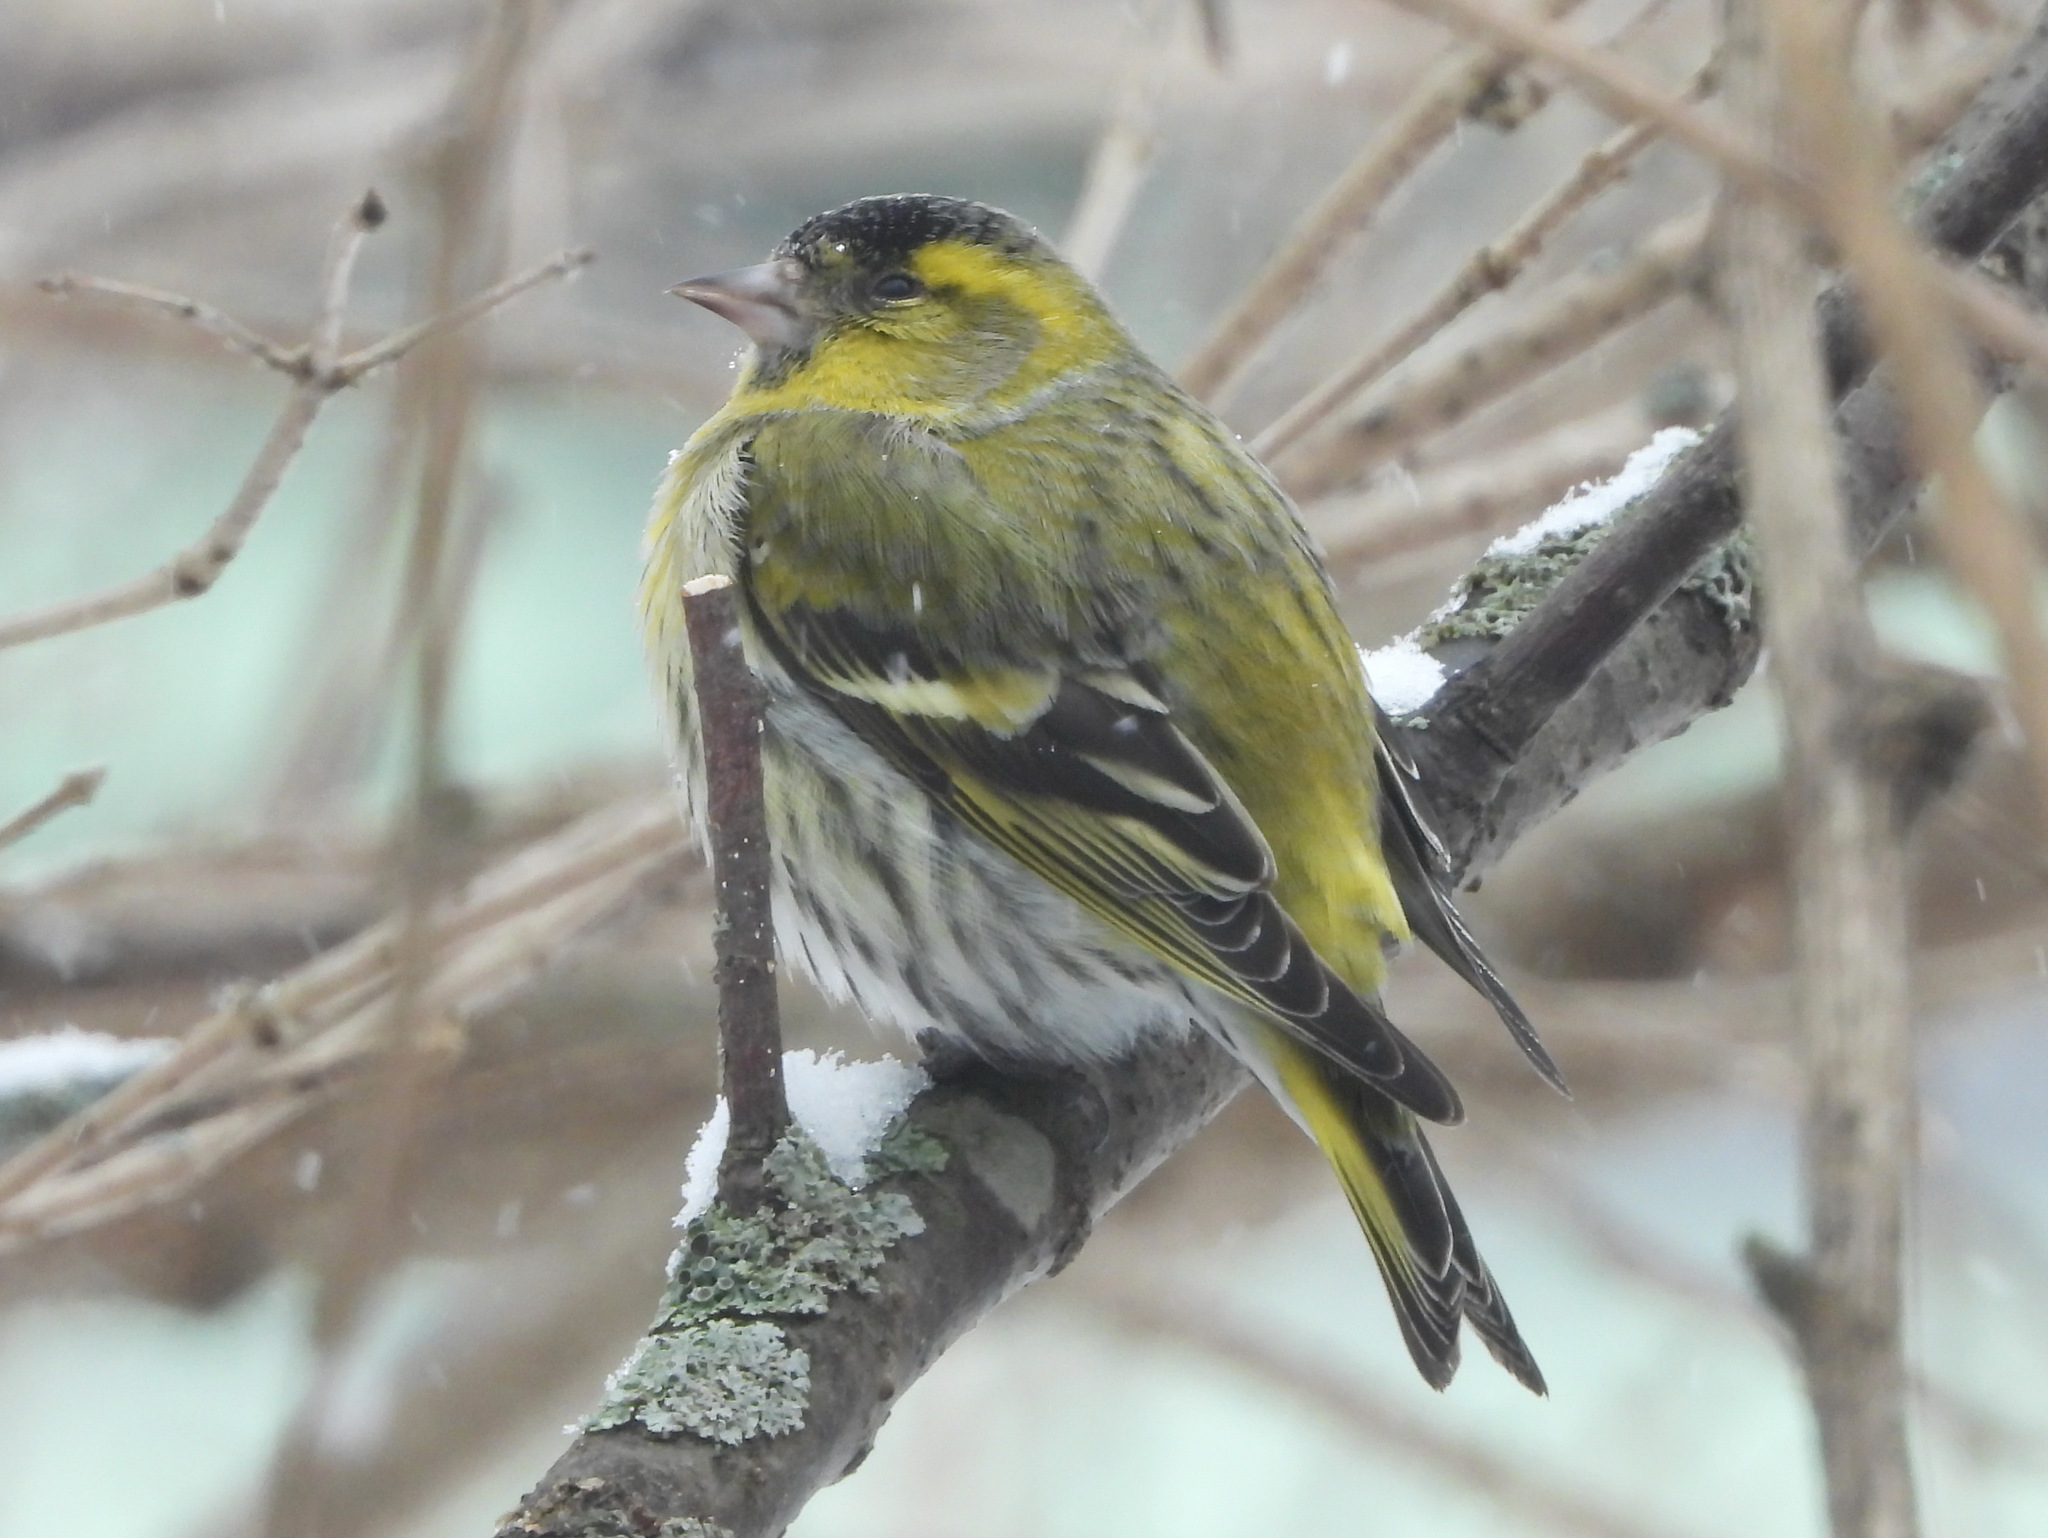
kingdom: Animalia
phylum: Chordata
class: Aves
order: Passeriformes
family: Fringillidae
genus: Spinus
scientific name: Spinus spinus
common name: Eurasian siskin
